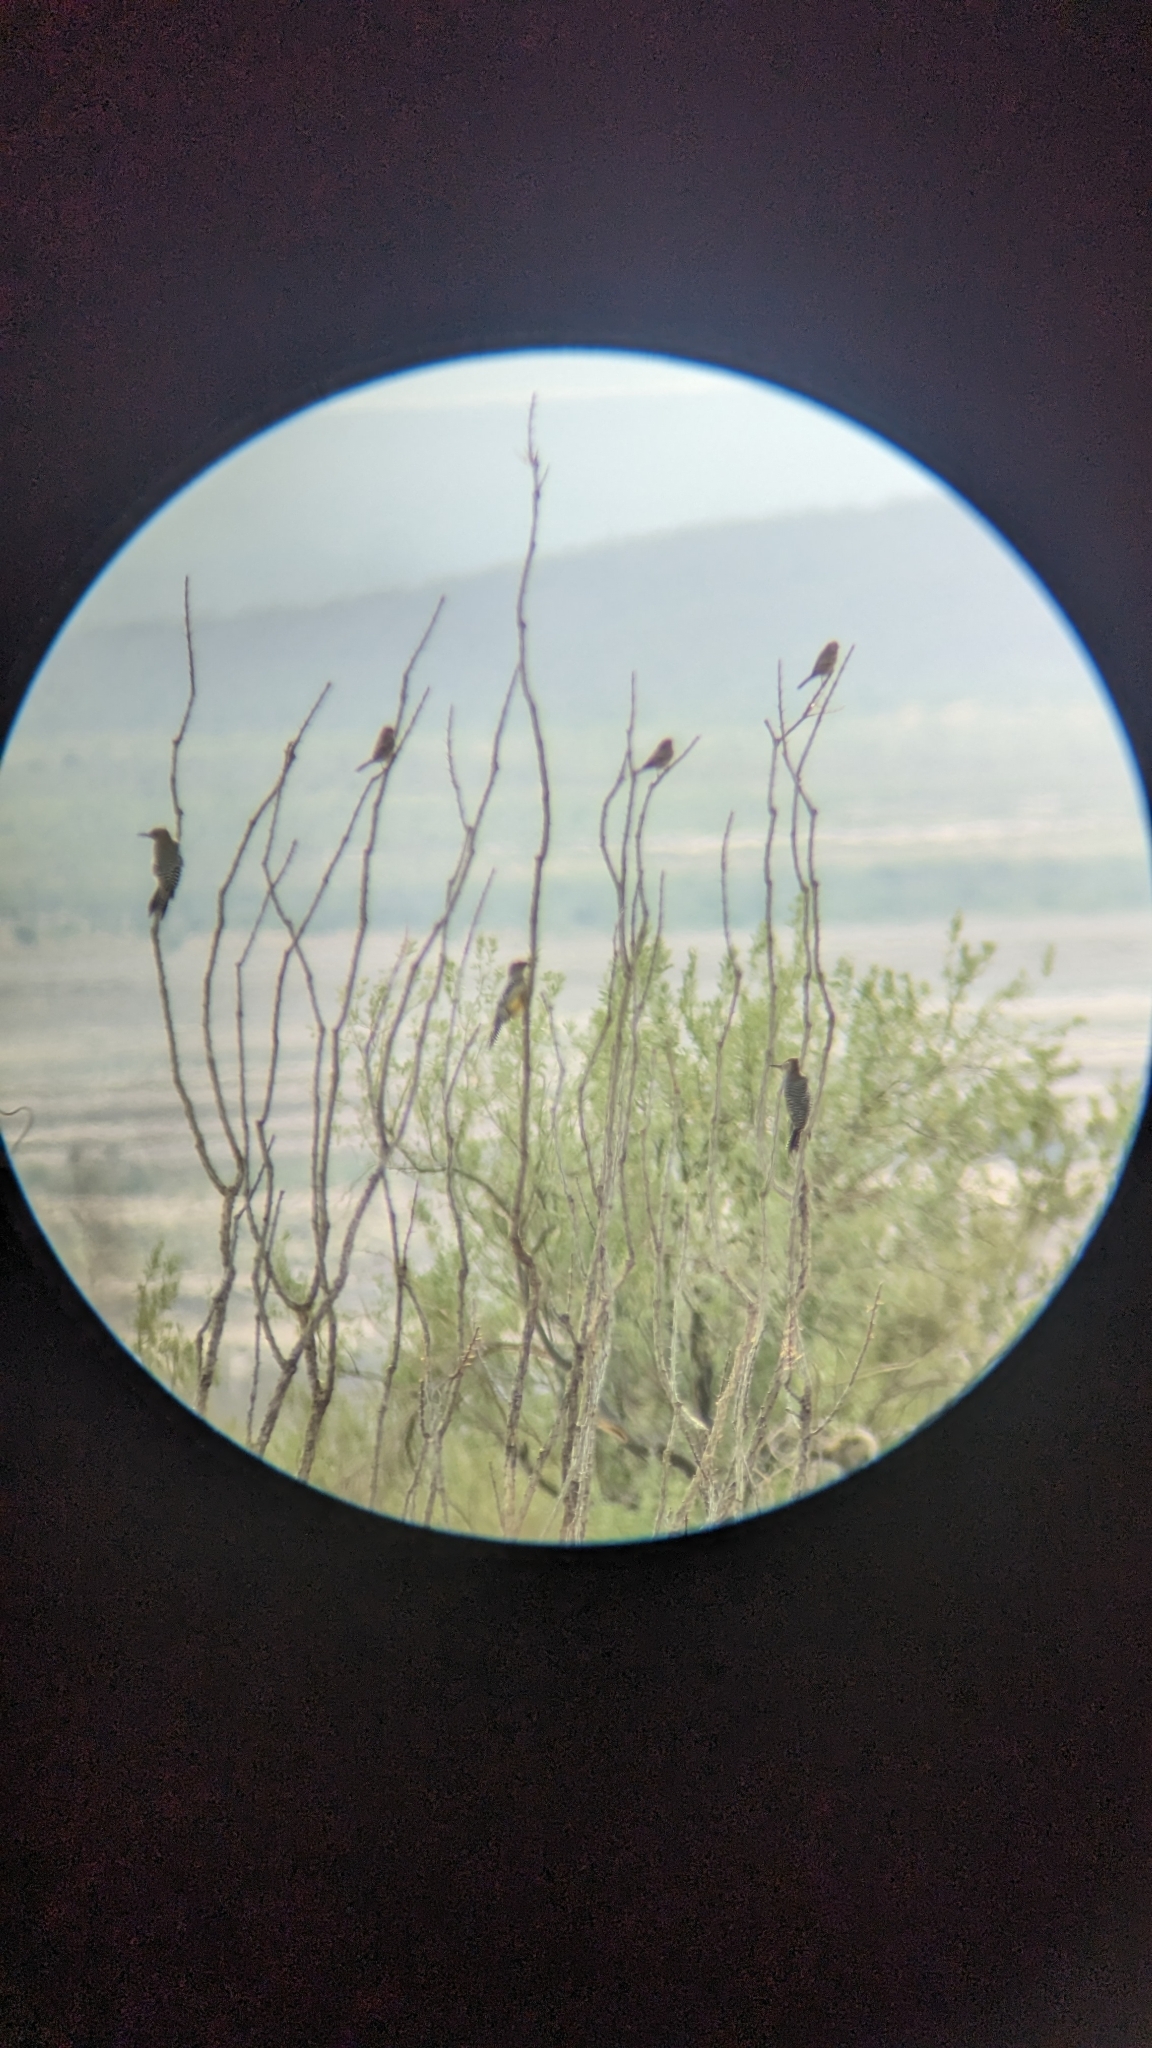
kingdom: Animalia
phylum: Chordata
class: Aves
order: Piciformes
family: Picidae
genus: Melanerpes
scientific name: Melanerpes uropygialis
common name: Gila woodpecker
